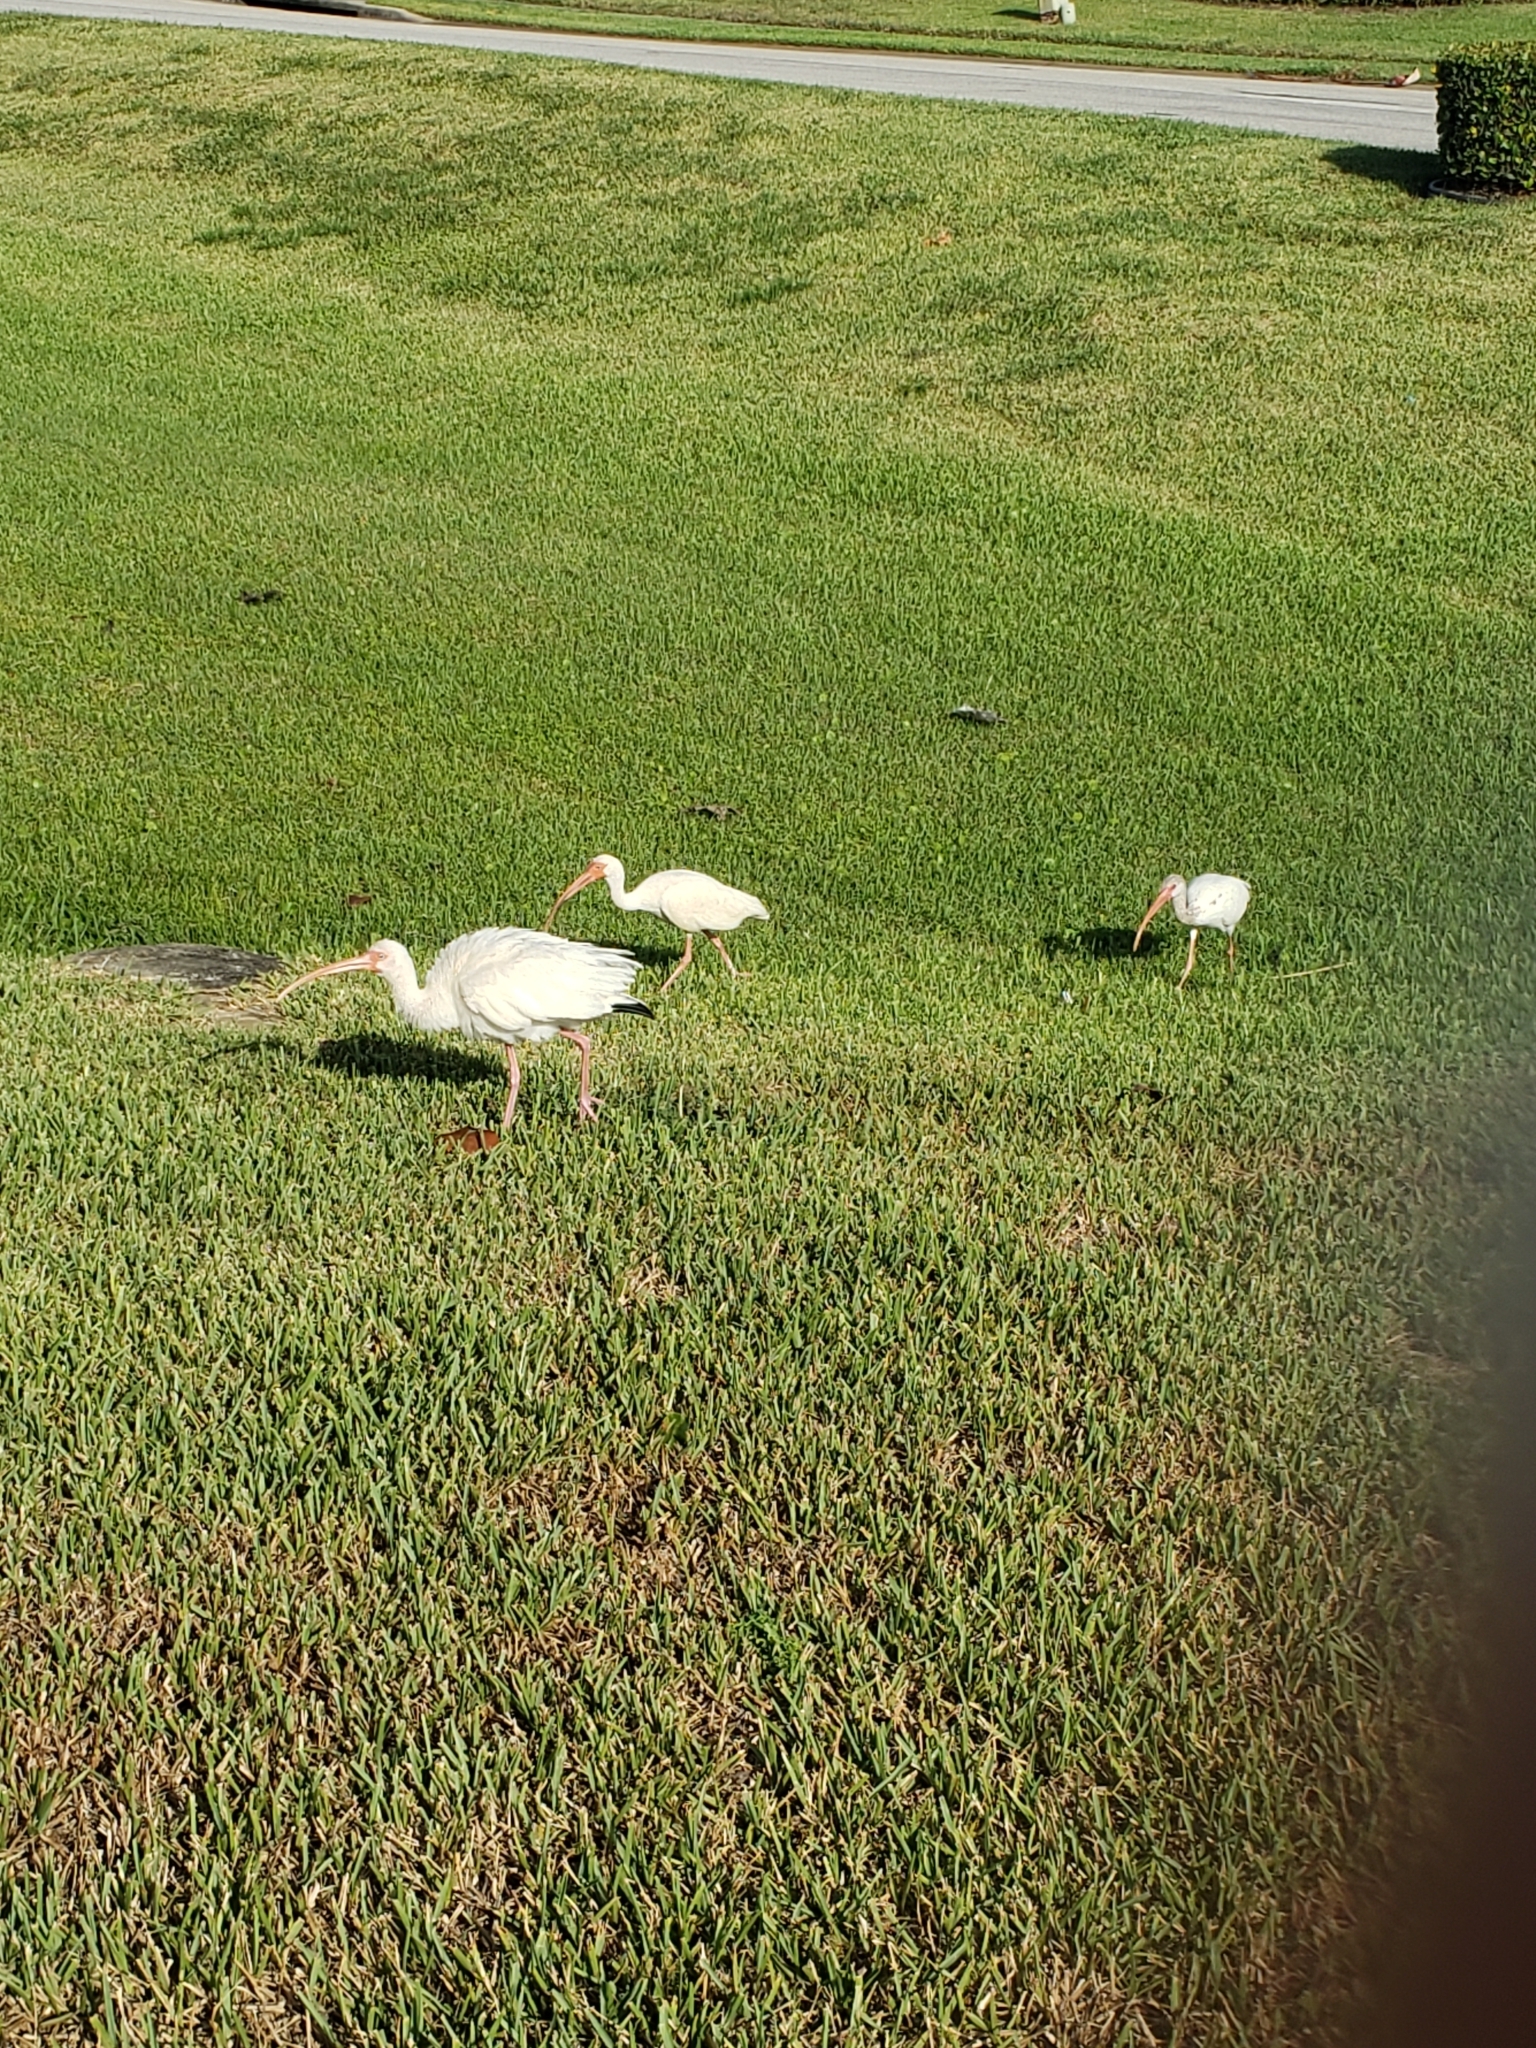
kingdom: Animalia
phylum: Chordata
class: Aves
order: Pelecaniformes
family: Threskiornithidae
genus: Eudocimus
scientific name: Eudocimus albus
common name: White ibis
